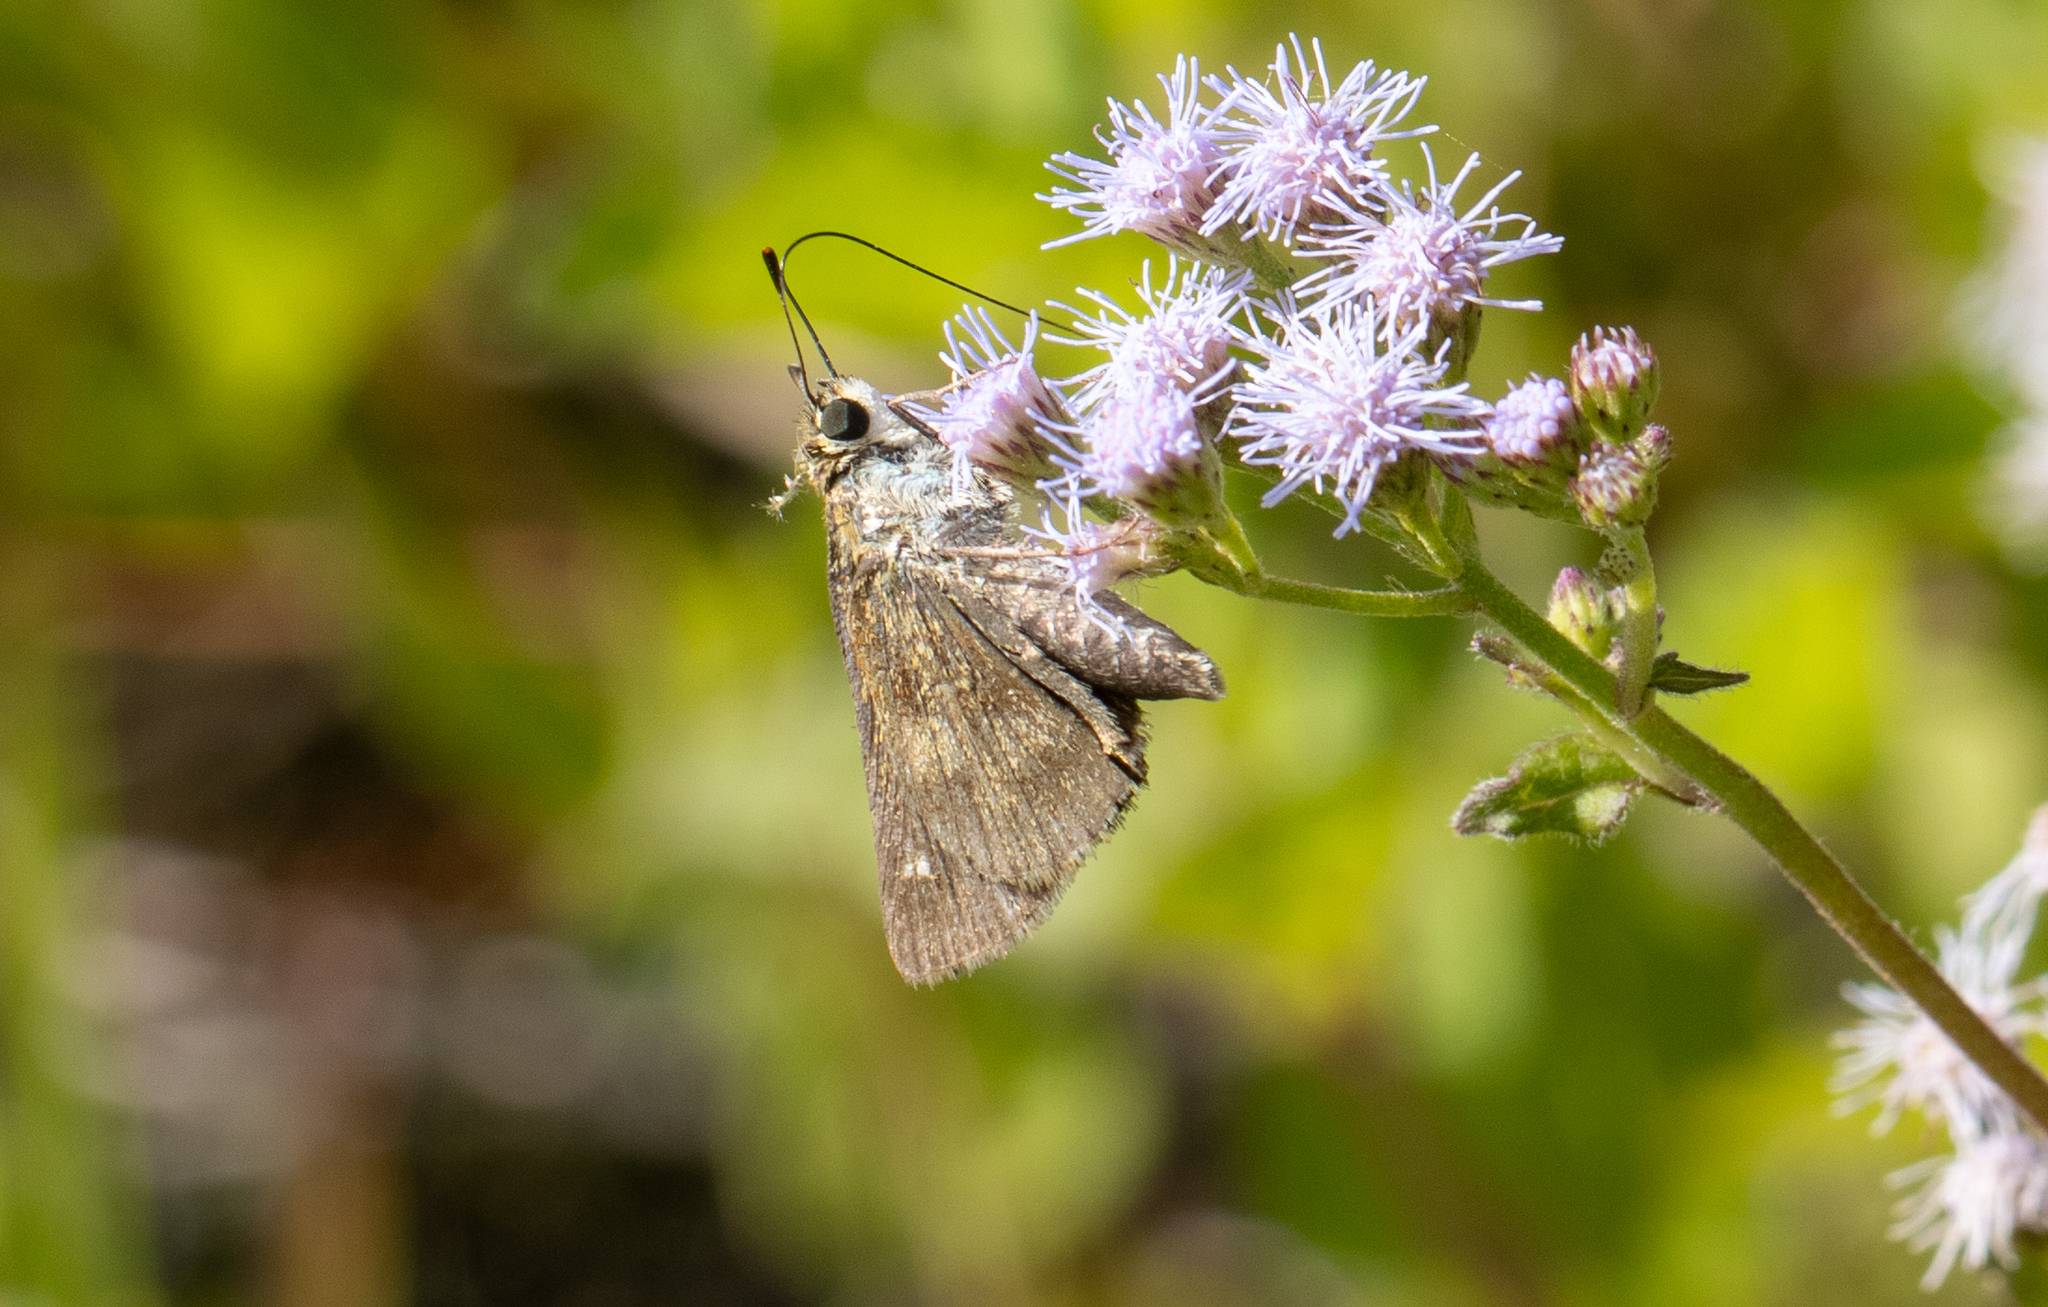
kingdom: Animalia
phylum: Arthropoda
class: Insecta
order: Lepidoptera
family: Hesperiidae
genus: Polites
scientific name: Polites vibex
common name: Whirlabout
